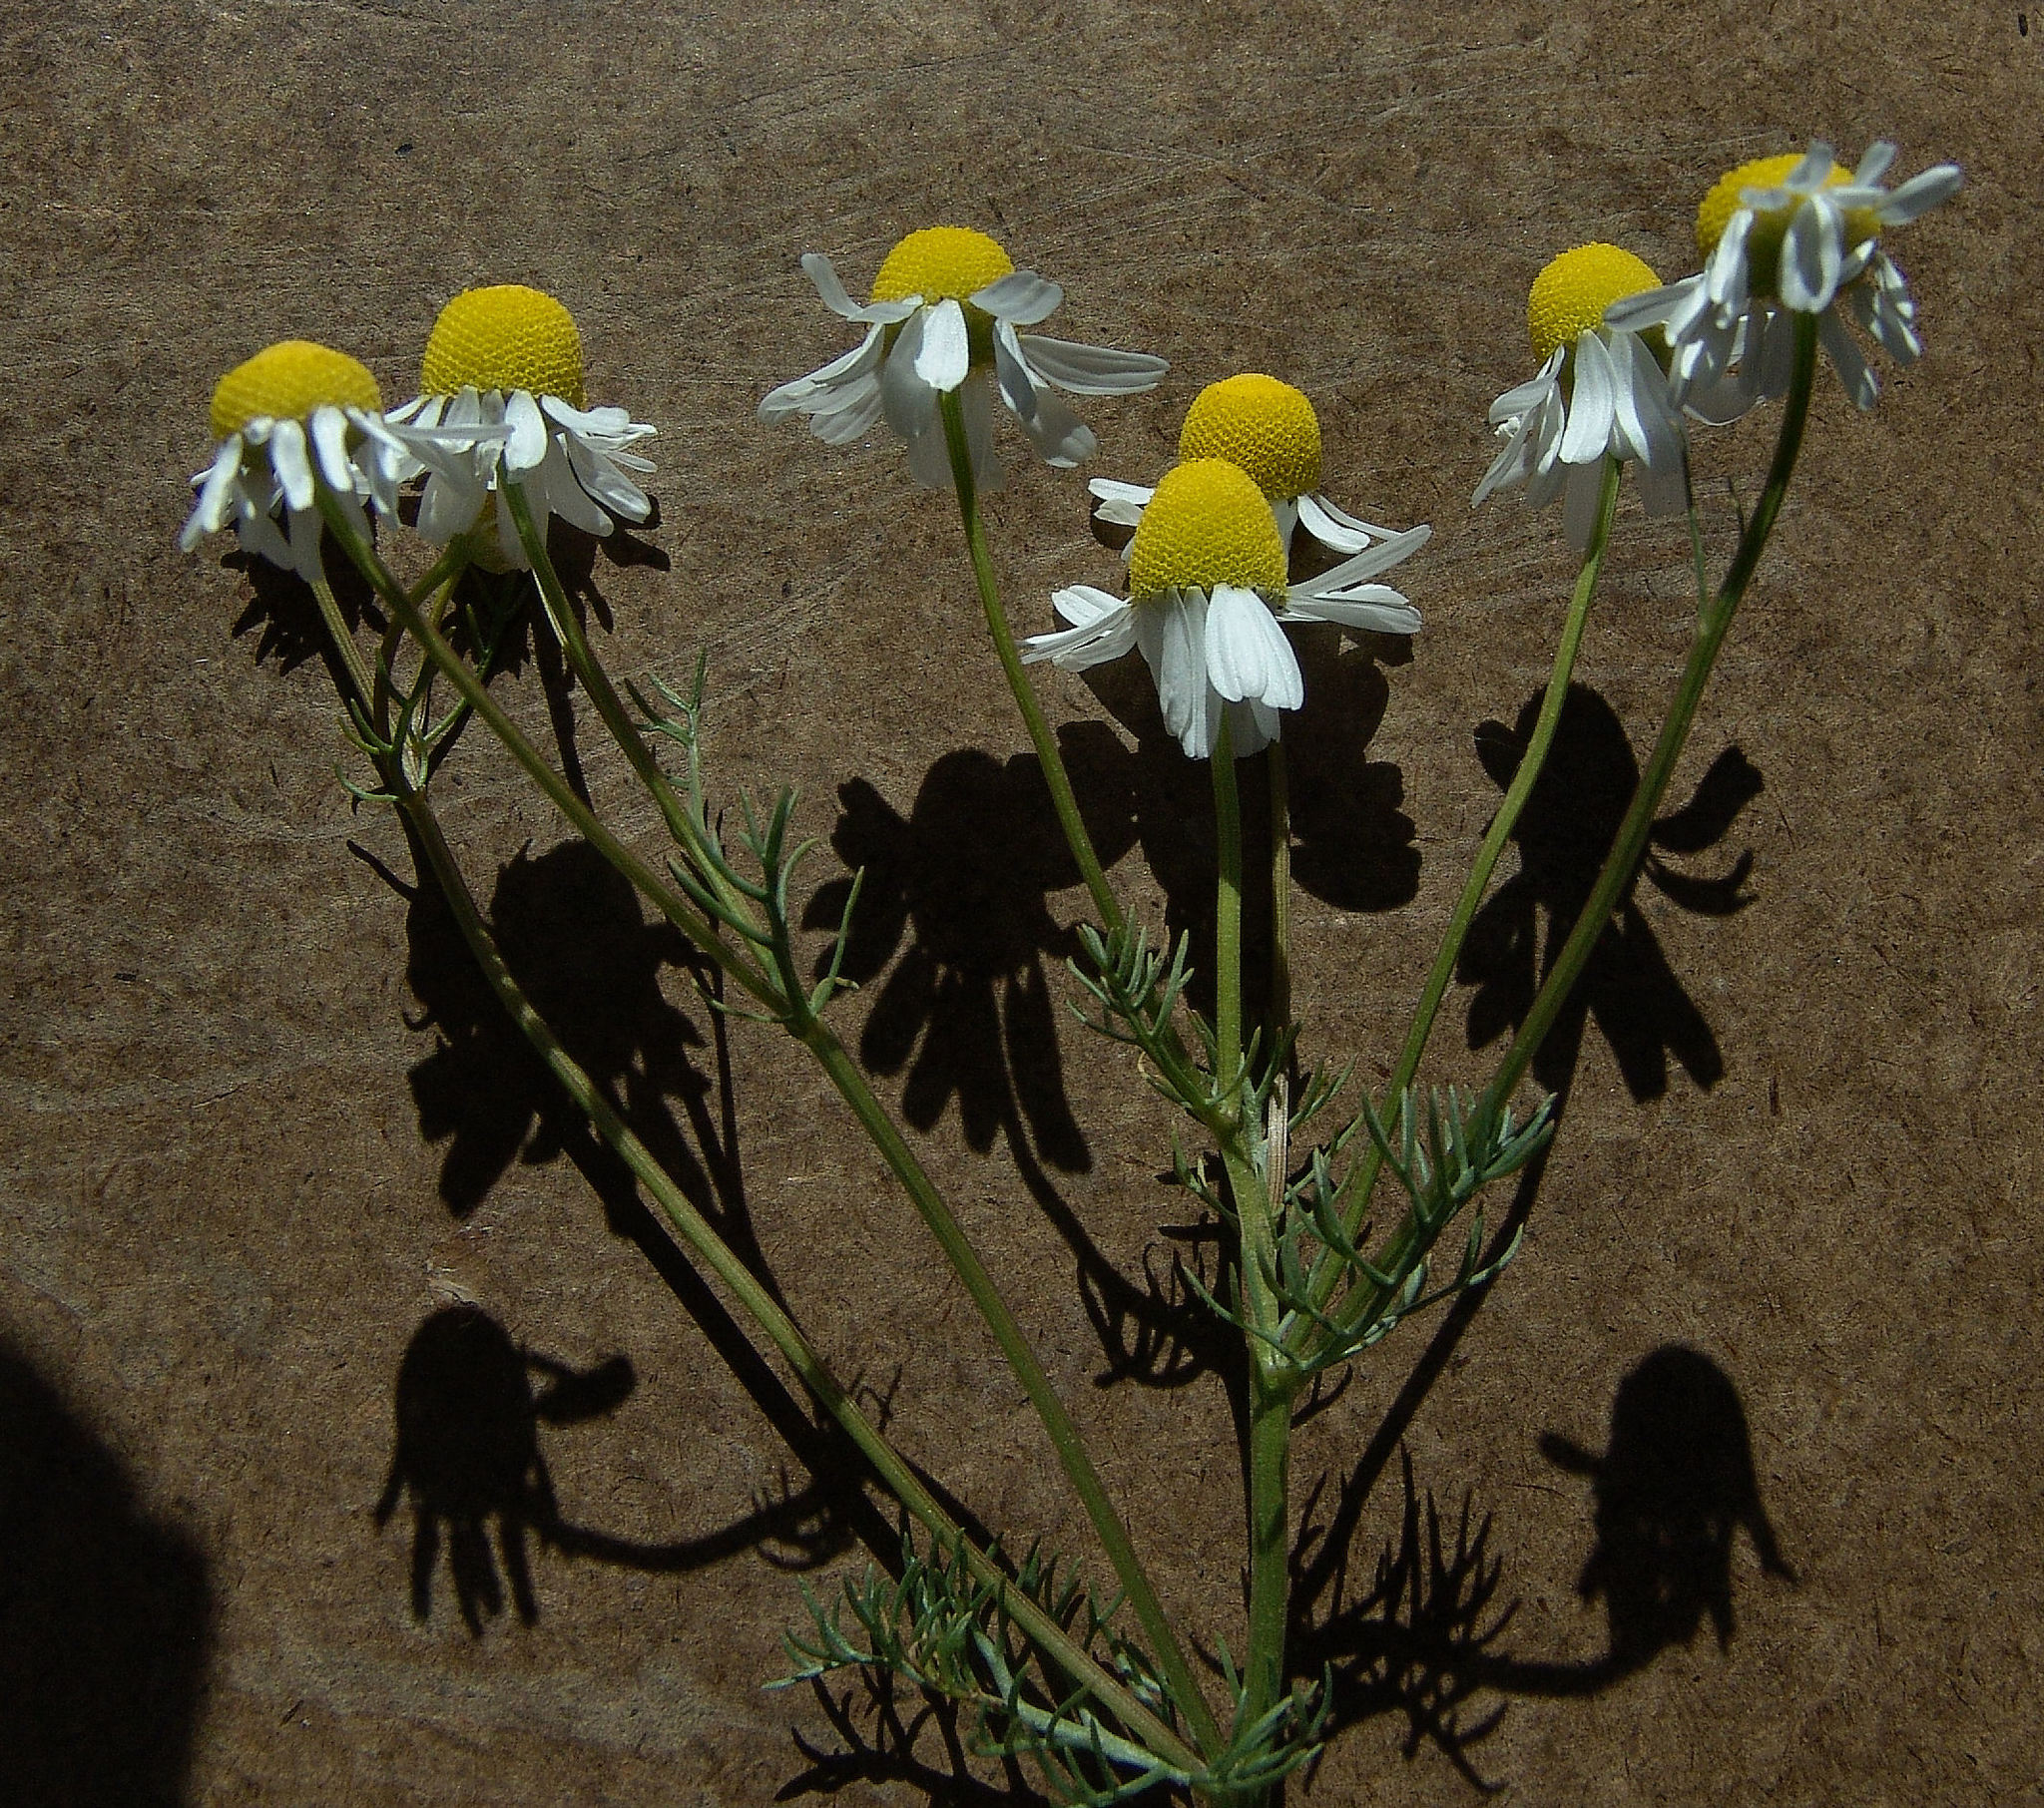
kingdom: Plantae
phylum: Tracheophyta
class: Magnoliopsida
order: Asterales
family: Asteraceae
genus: Matricaria
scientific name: Matricaria chamomilla
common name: Scented mayweed
